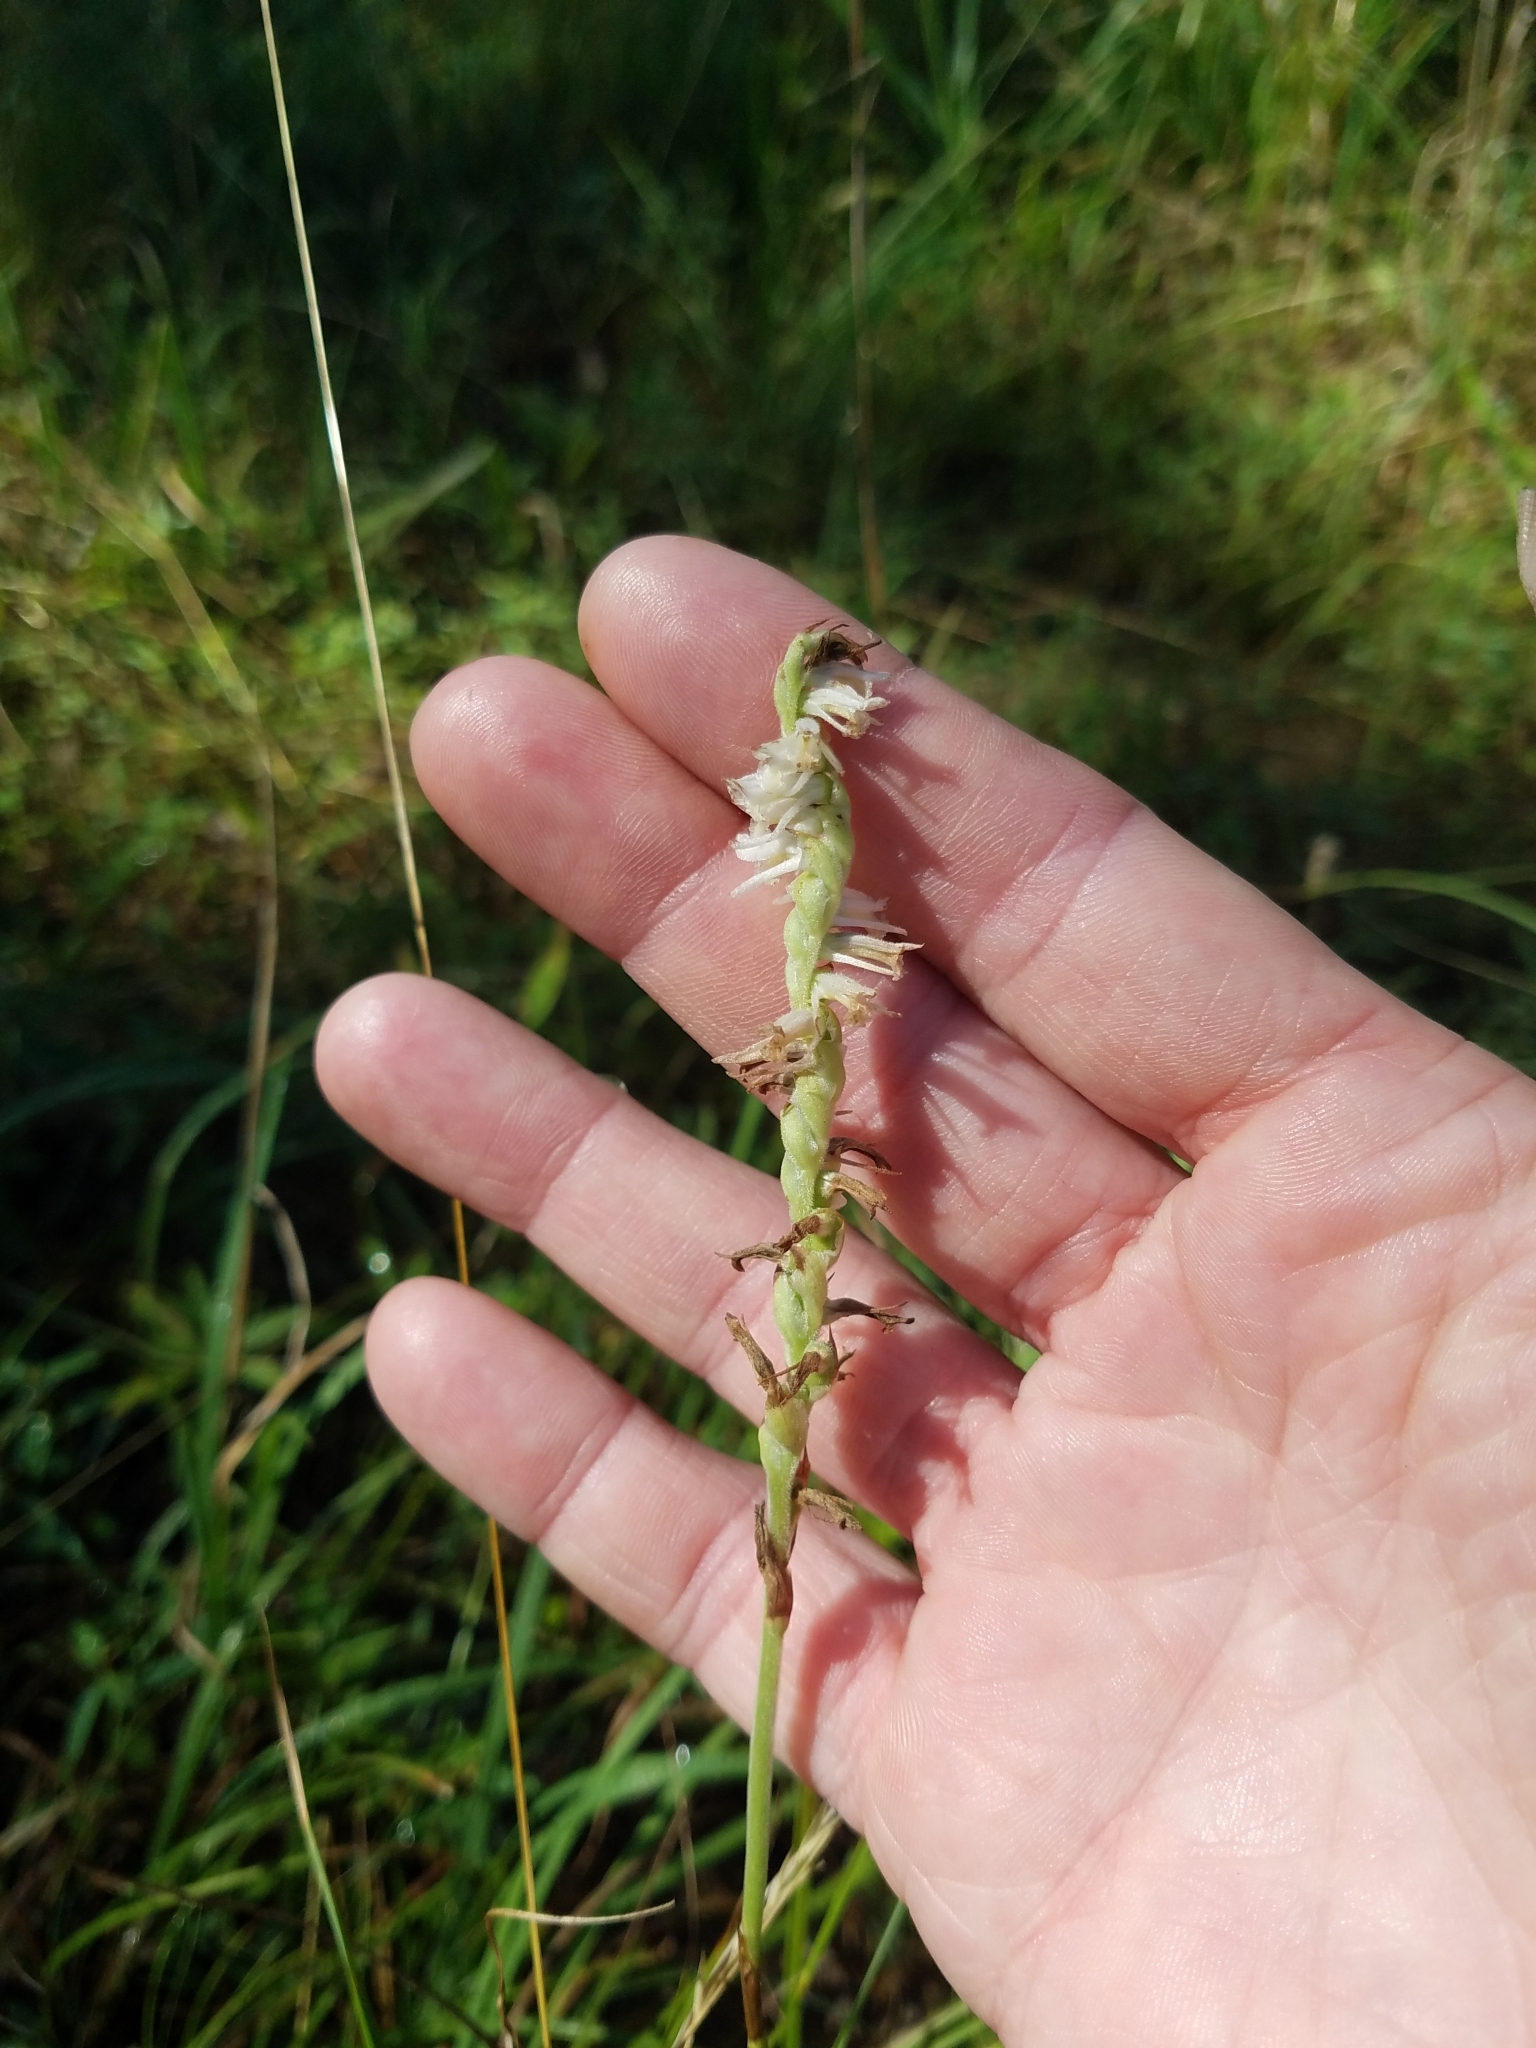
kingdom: Plantae
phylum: Tracheophyta
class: Liliopsida
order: Asparagales
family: Orchidaceae
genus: Spiranthes
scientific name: Spiranthes vernalis
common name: Spring ladies'-tresses
